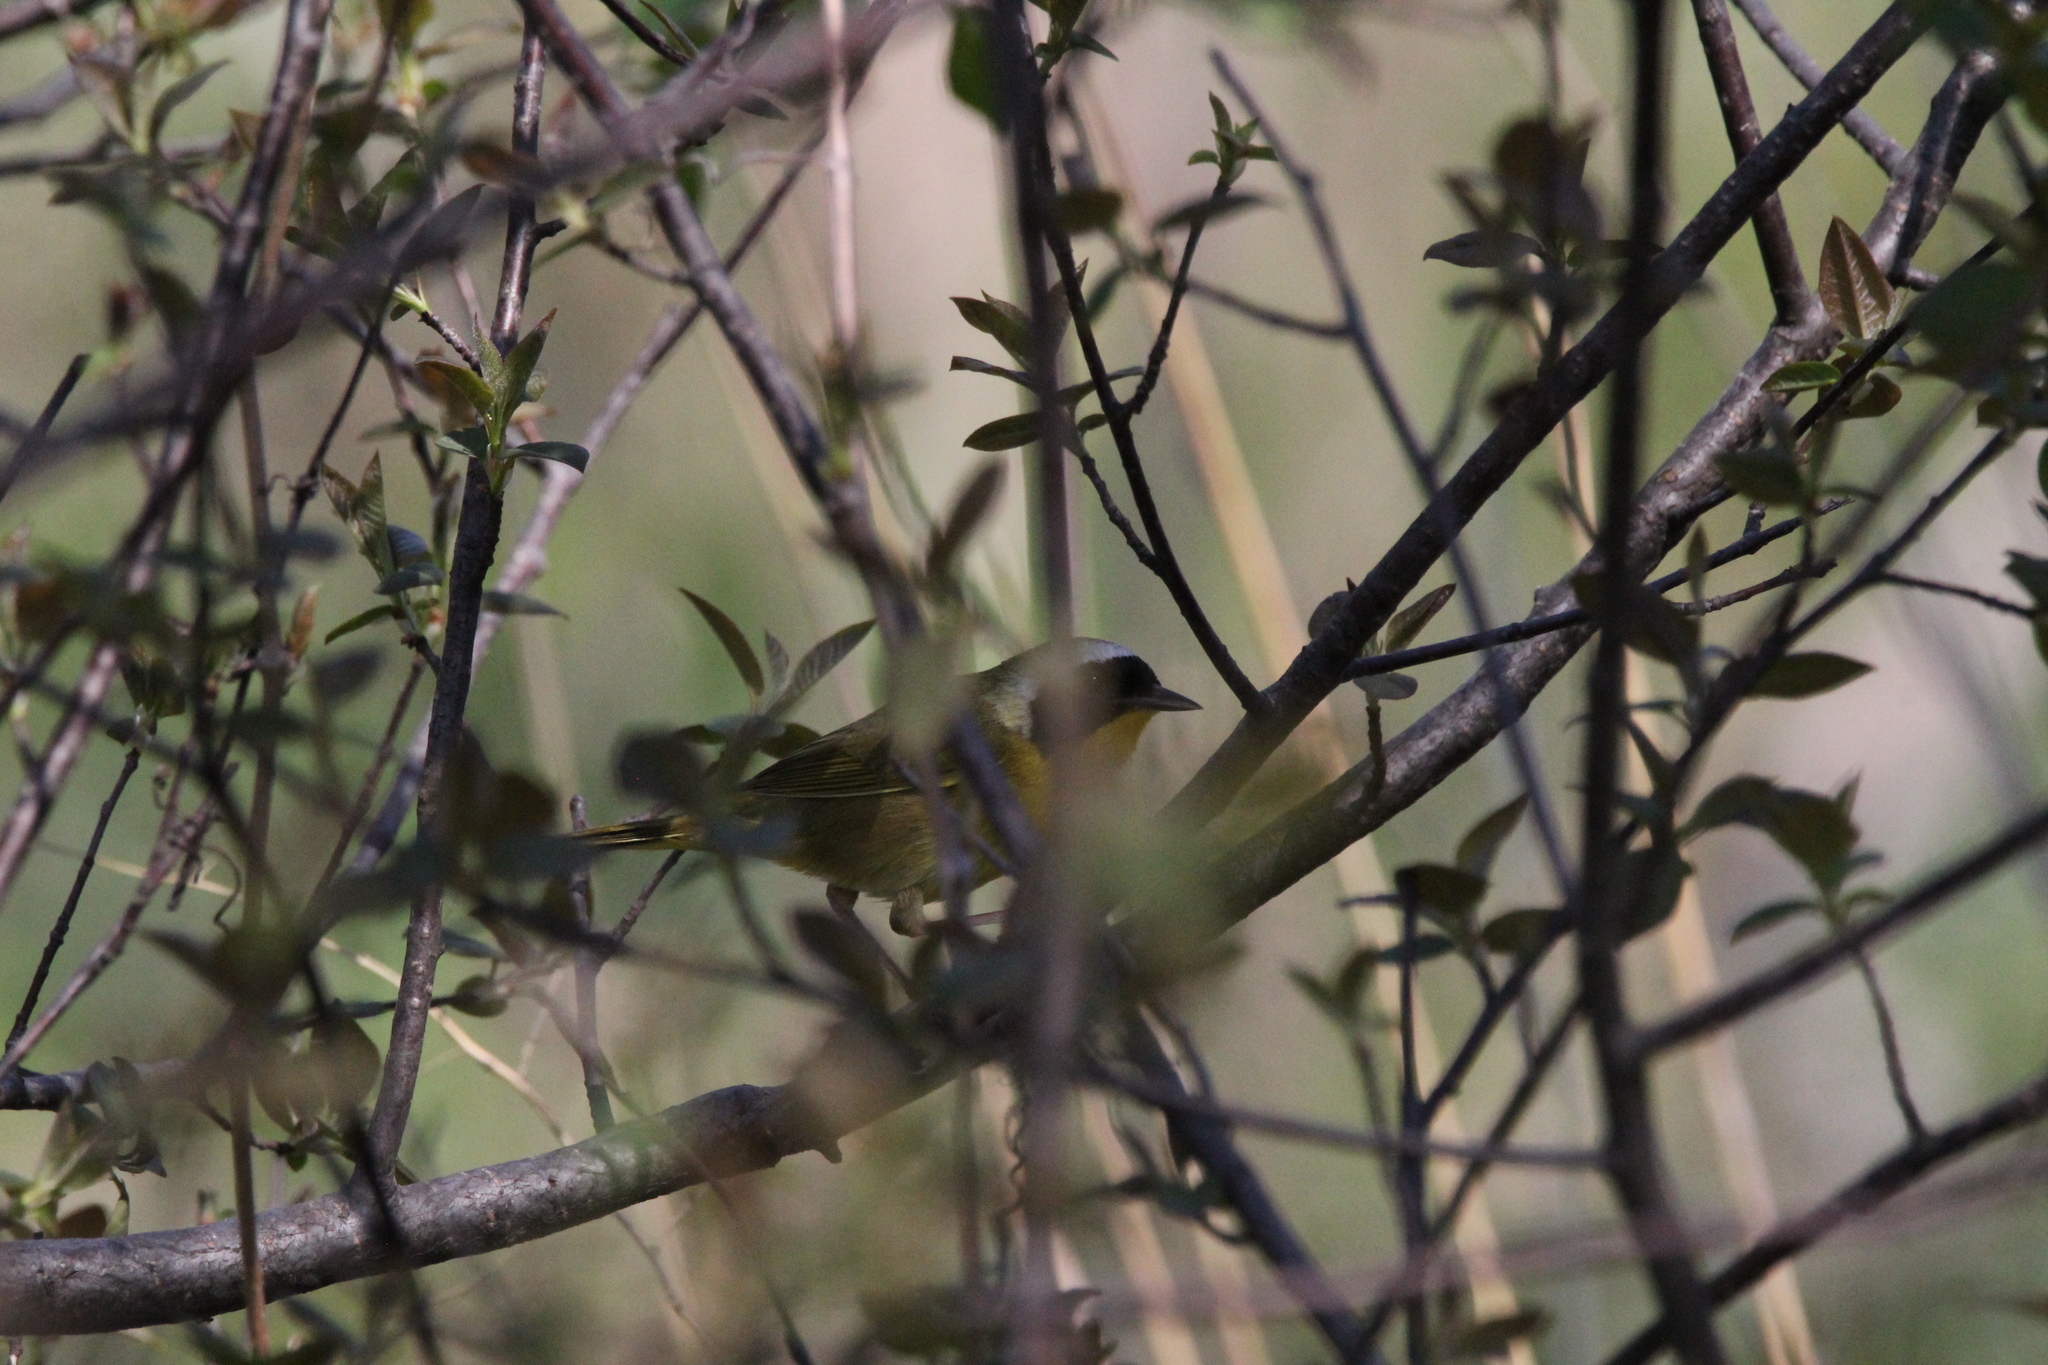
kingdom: Animalia
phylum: Chordata
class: Aves
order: Passeriformes
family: Parulidae
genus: Geothlypis
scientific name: Geothlypis trichas
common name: Common yellowthroat
